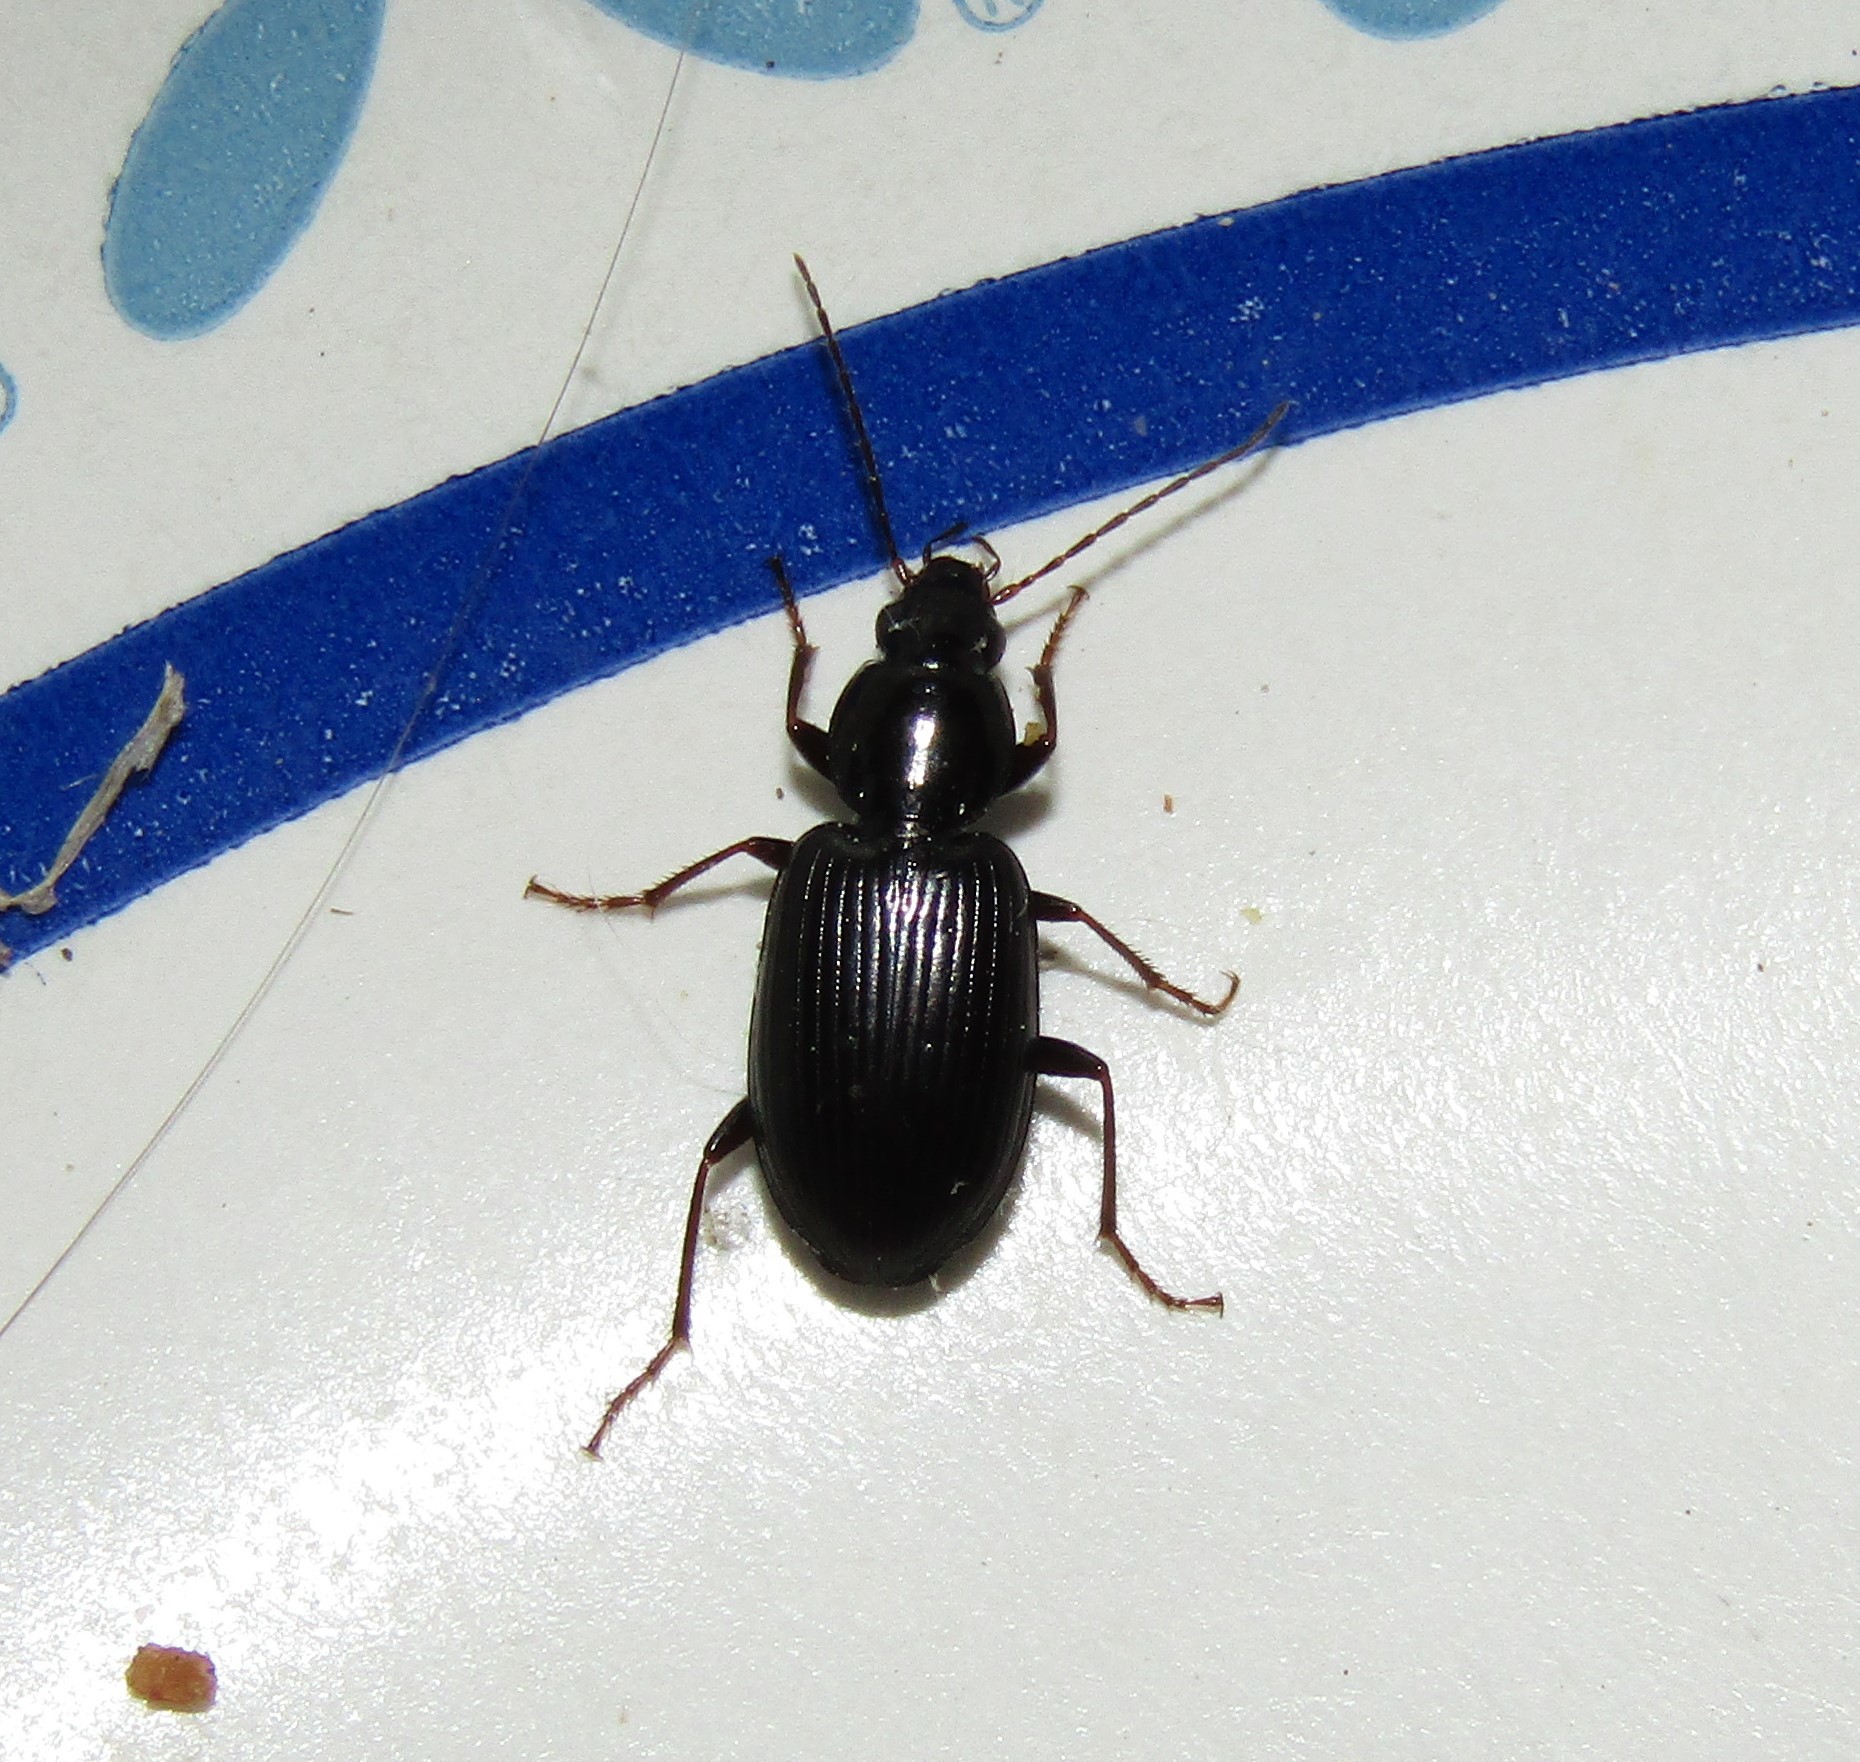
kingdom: Animalia
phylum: Arthropoda
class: Insecta
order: Coleoptera
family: Carabidae
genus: Agonum
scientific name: Agonum punctiforme
